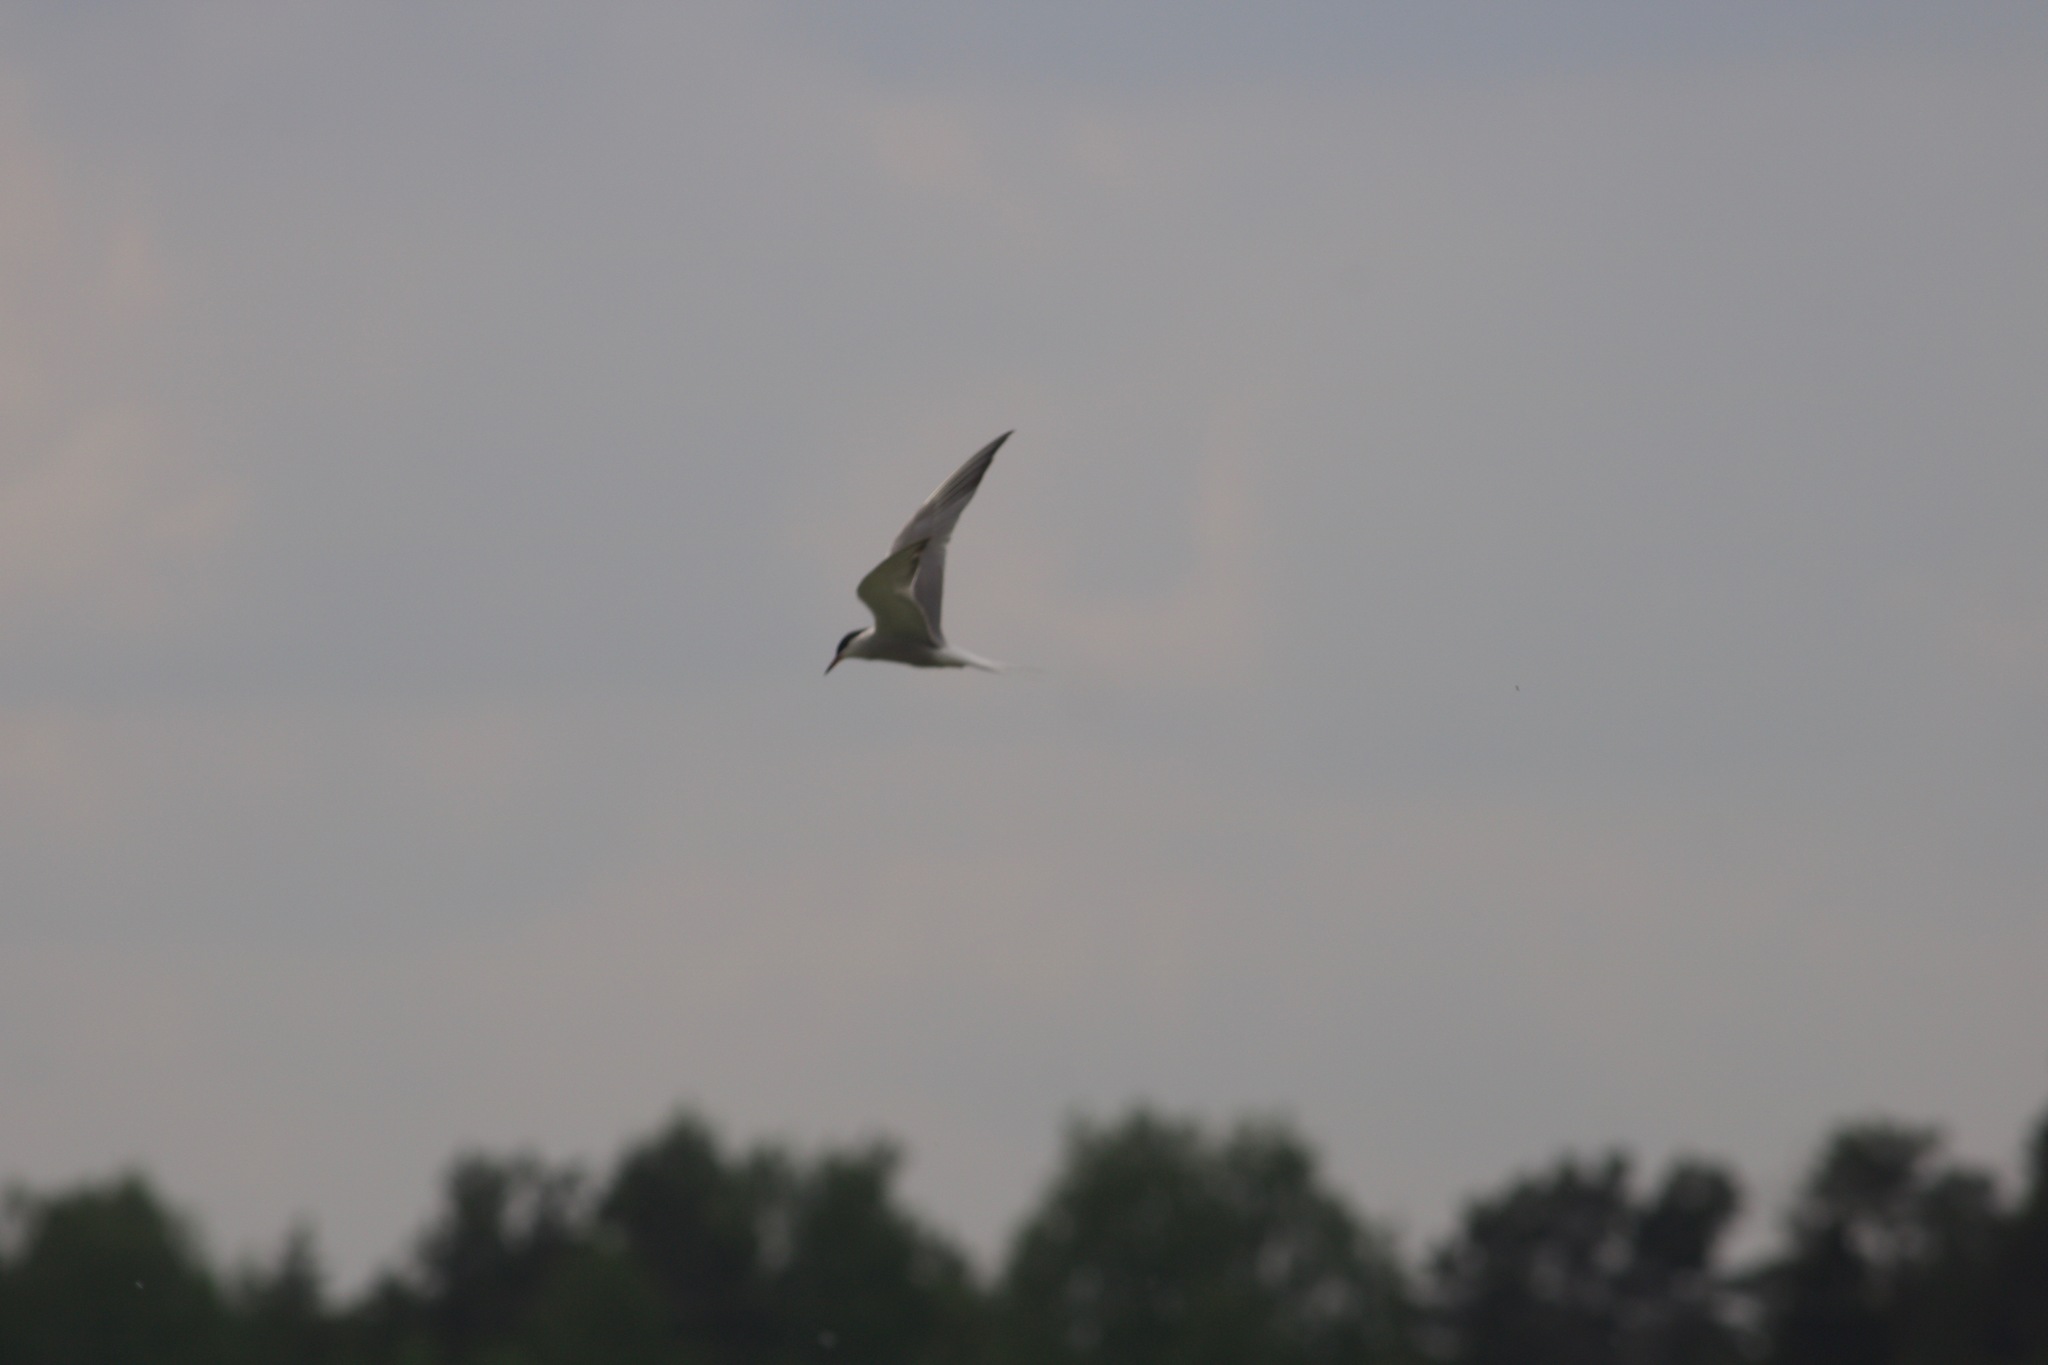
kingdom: Animalia
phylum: Chordata
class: Aves
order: Charadriiformes
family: Laridae
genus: Sterna
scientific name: Sterna hirundo
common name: Common tern
